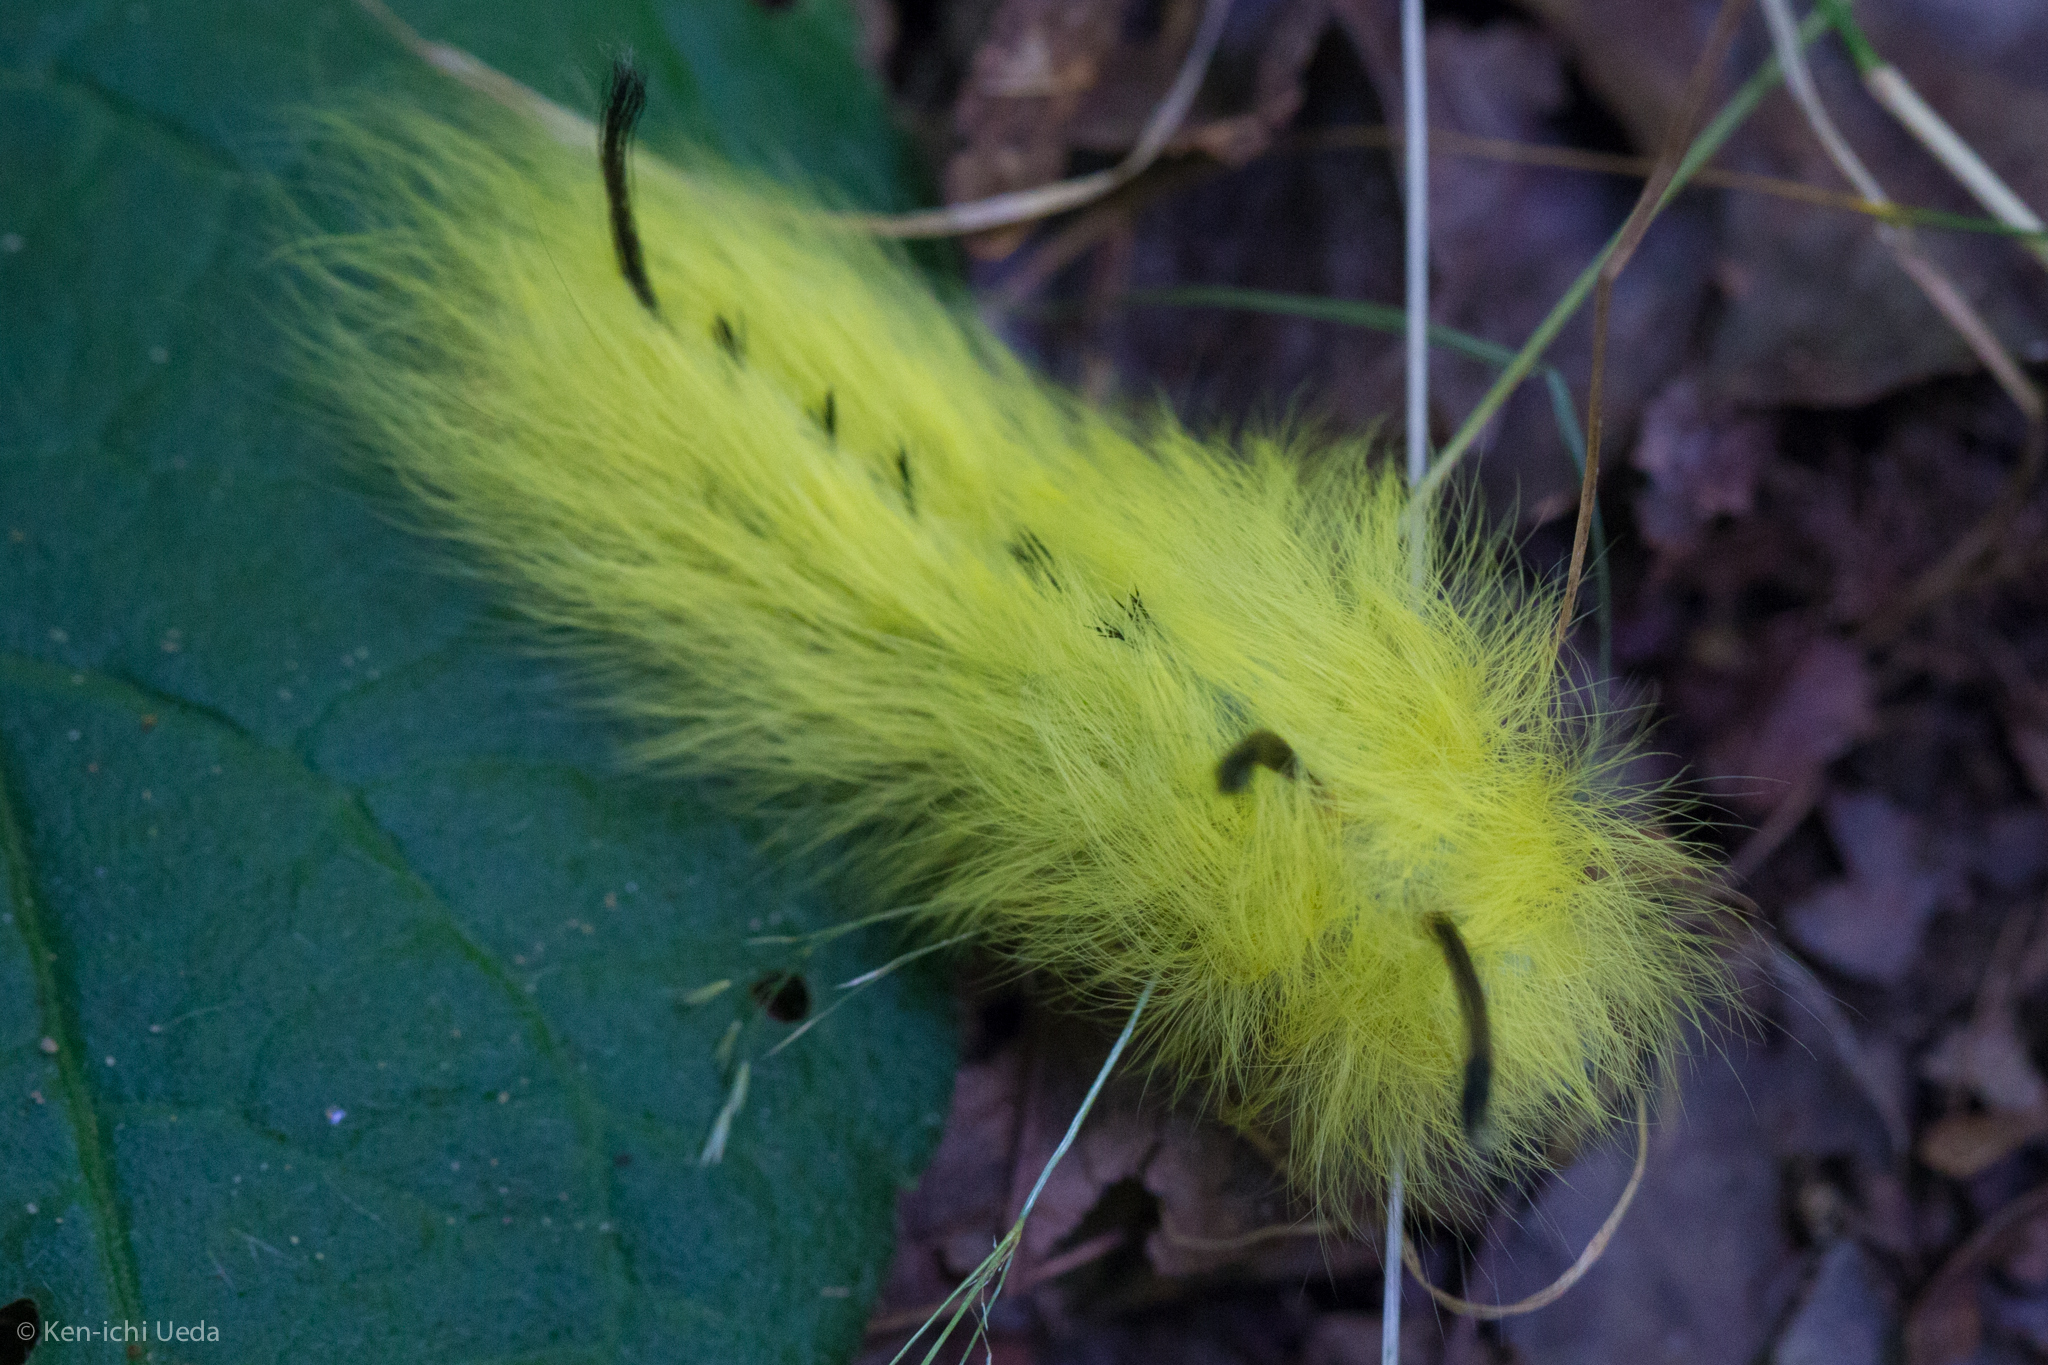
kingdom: Animalia
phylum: Arthropoda
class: Insecta
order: Lepidoptera
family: Apatelodidae
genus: Hygrochroa
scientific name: Hygrochroa Apatelodes torrefacta
